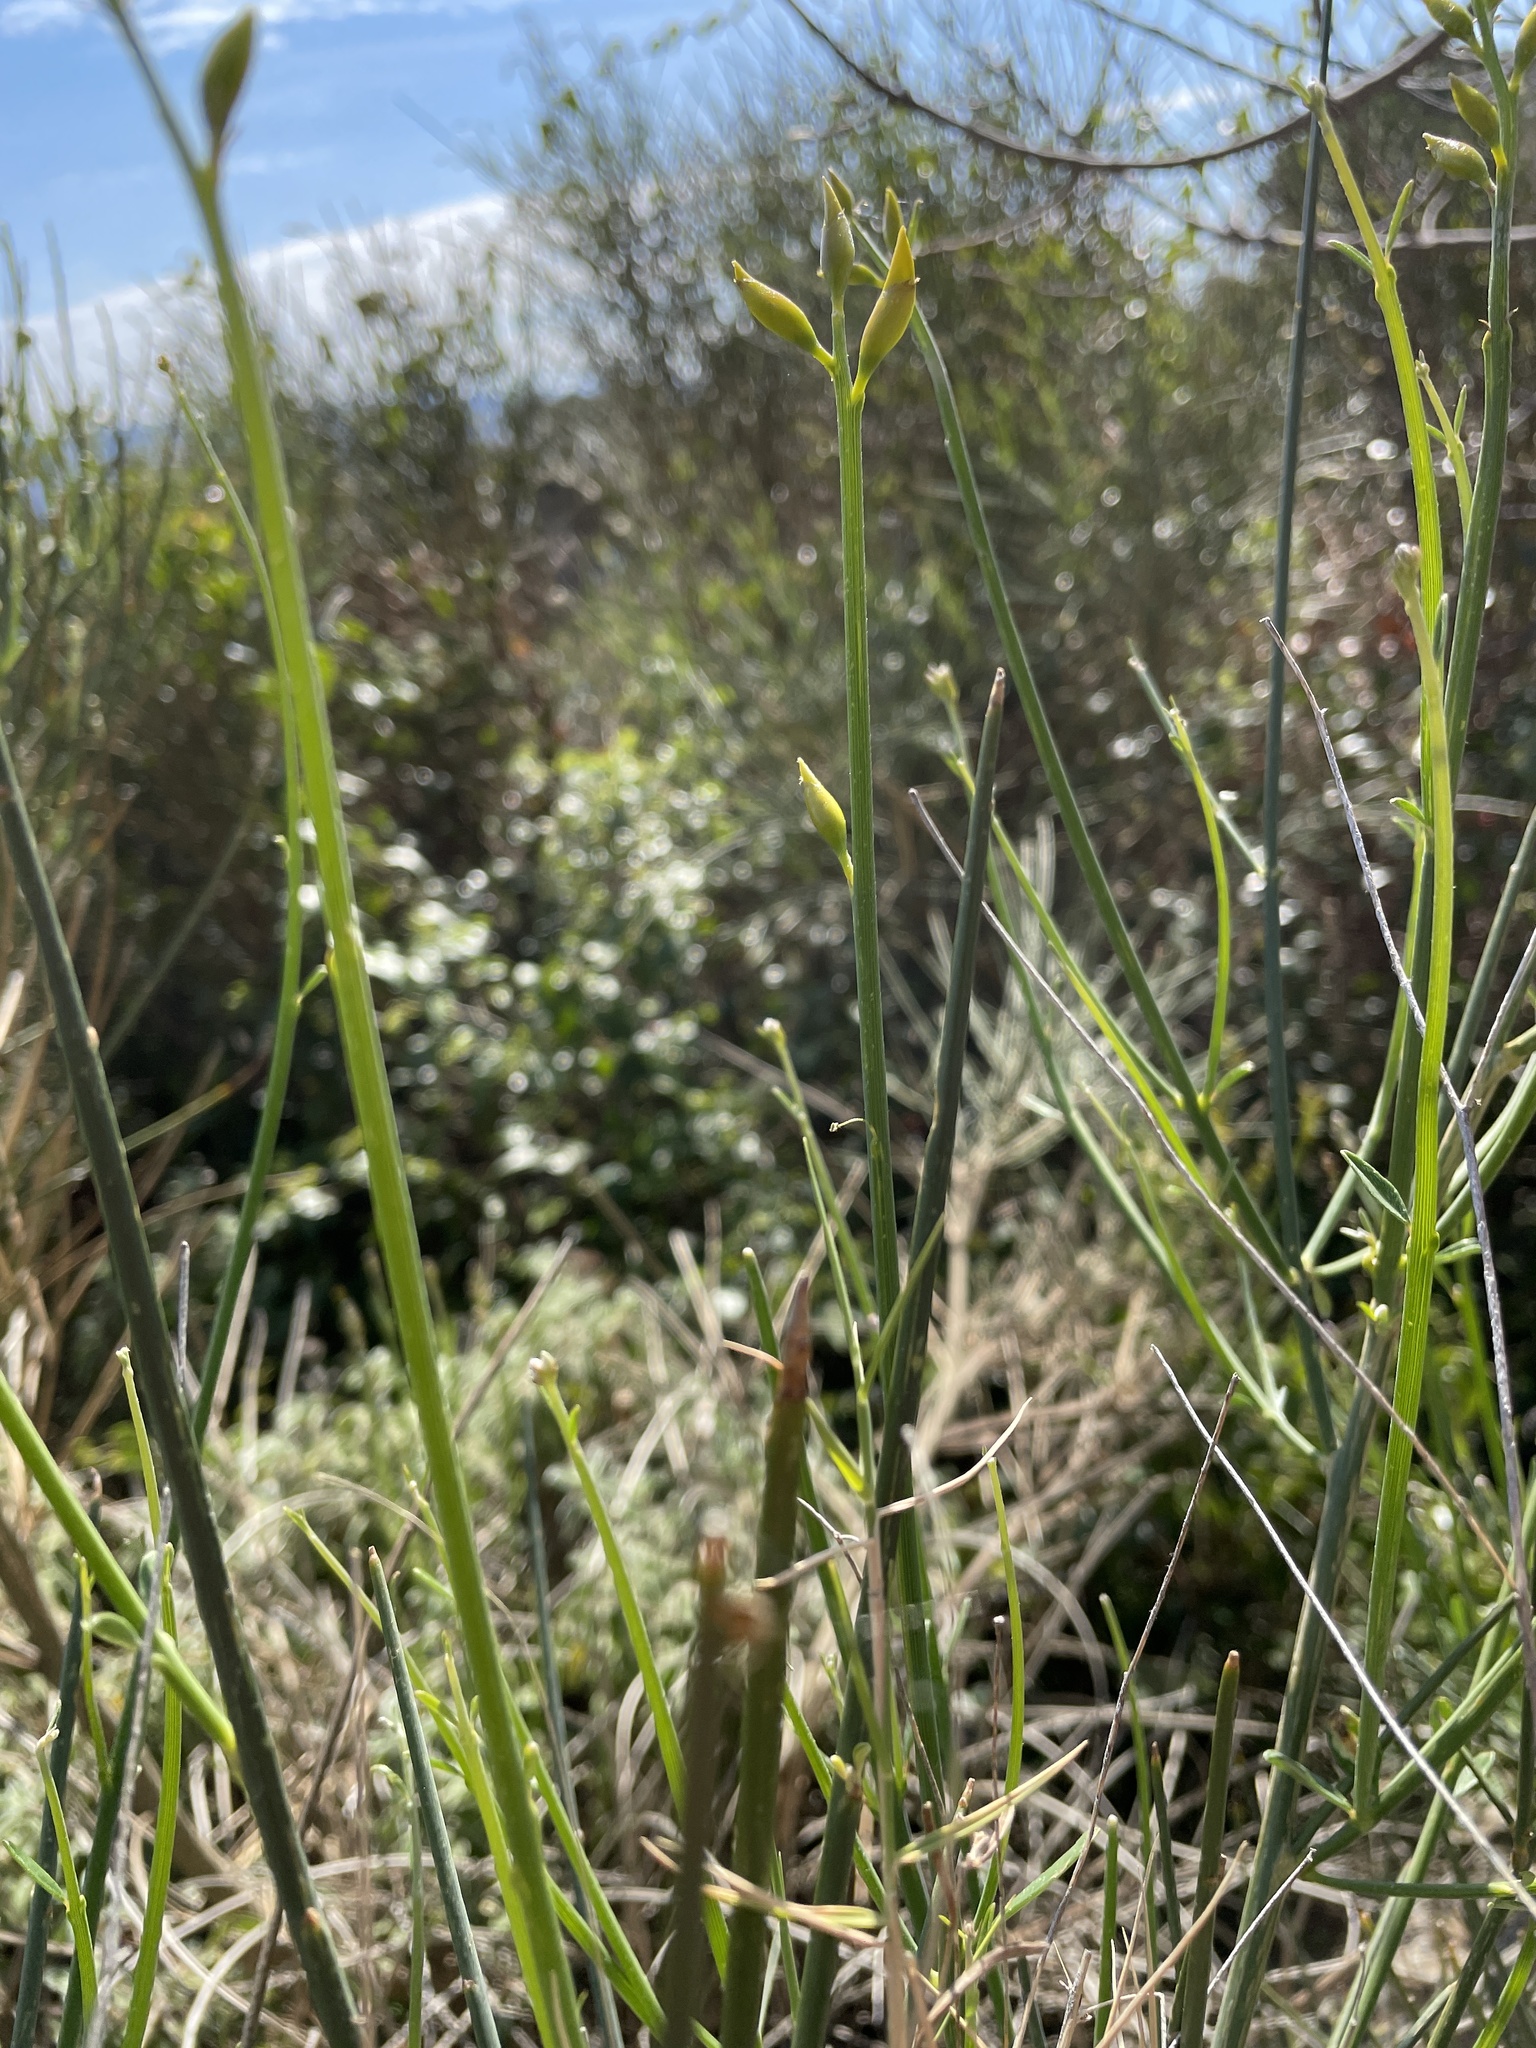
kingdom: Plantae
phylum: Tracheophyta
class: Magnoliopsida
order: Fabales
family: Fabaceae
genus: Spartium
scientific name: Spartium junceum
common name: Spanish broom
